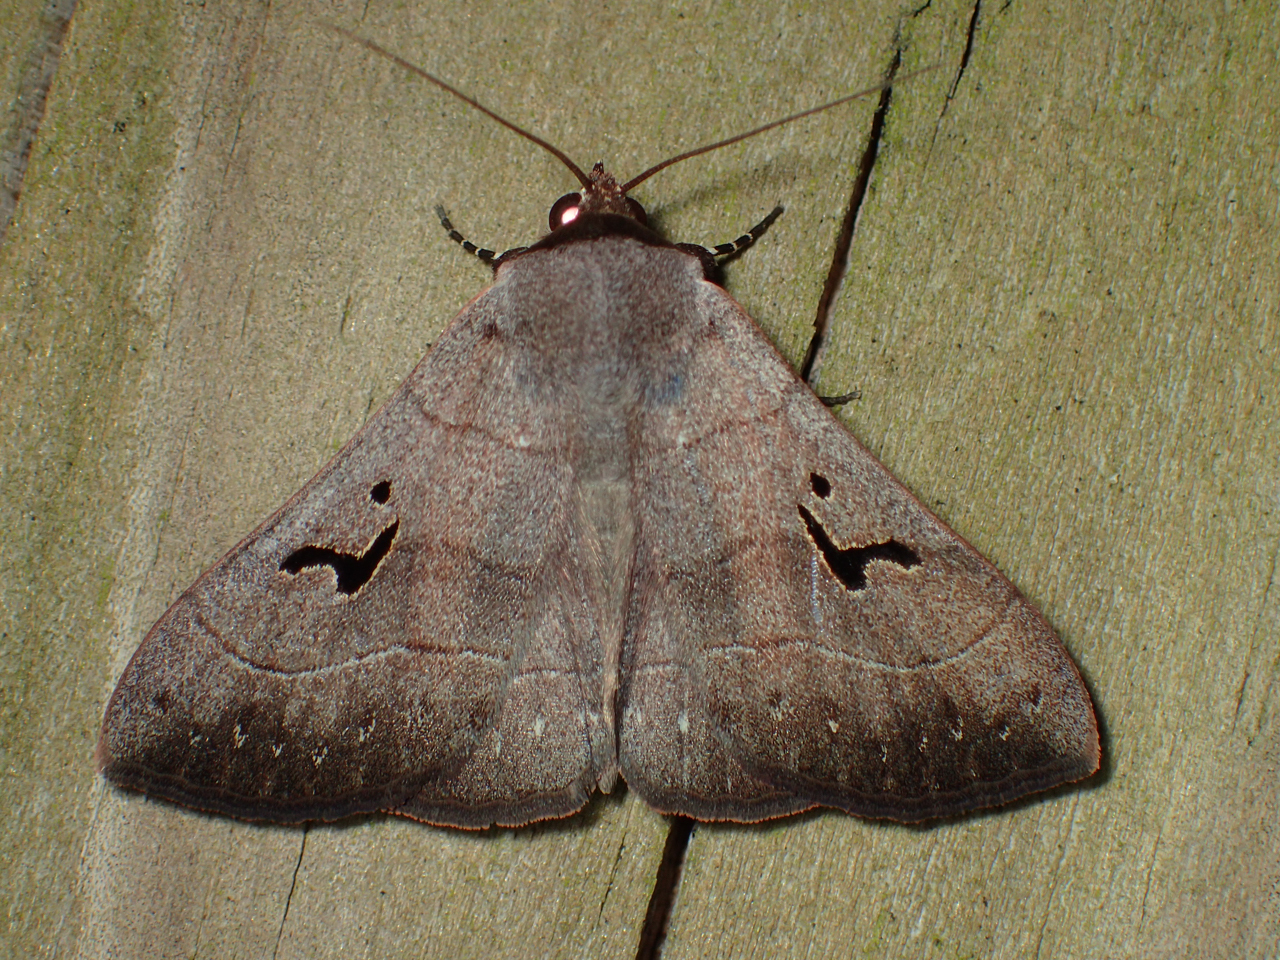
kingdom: Animalia
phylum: Arthropoda
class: Insecta
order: Lepidoptera
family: Erebidae
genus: Panopoda
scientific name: Panopoda carneicosta
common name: Brown panopoda moth
